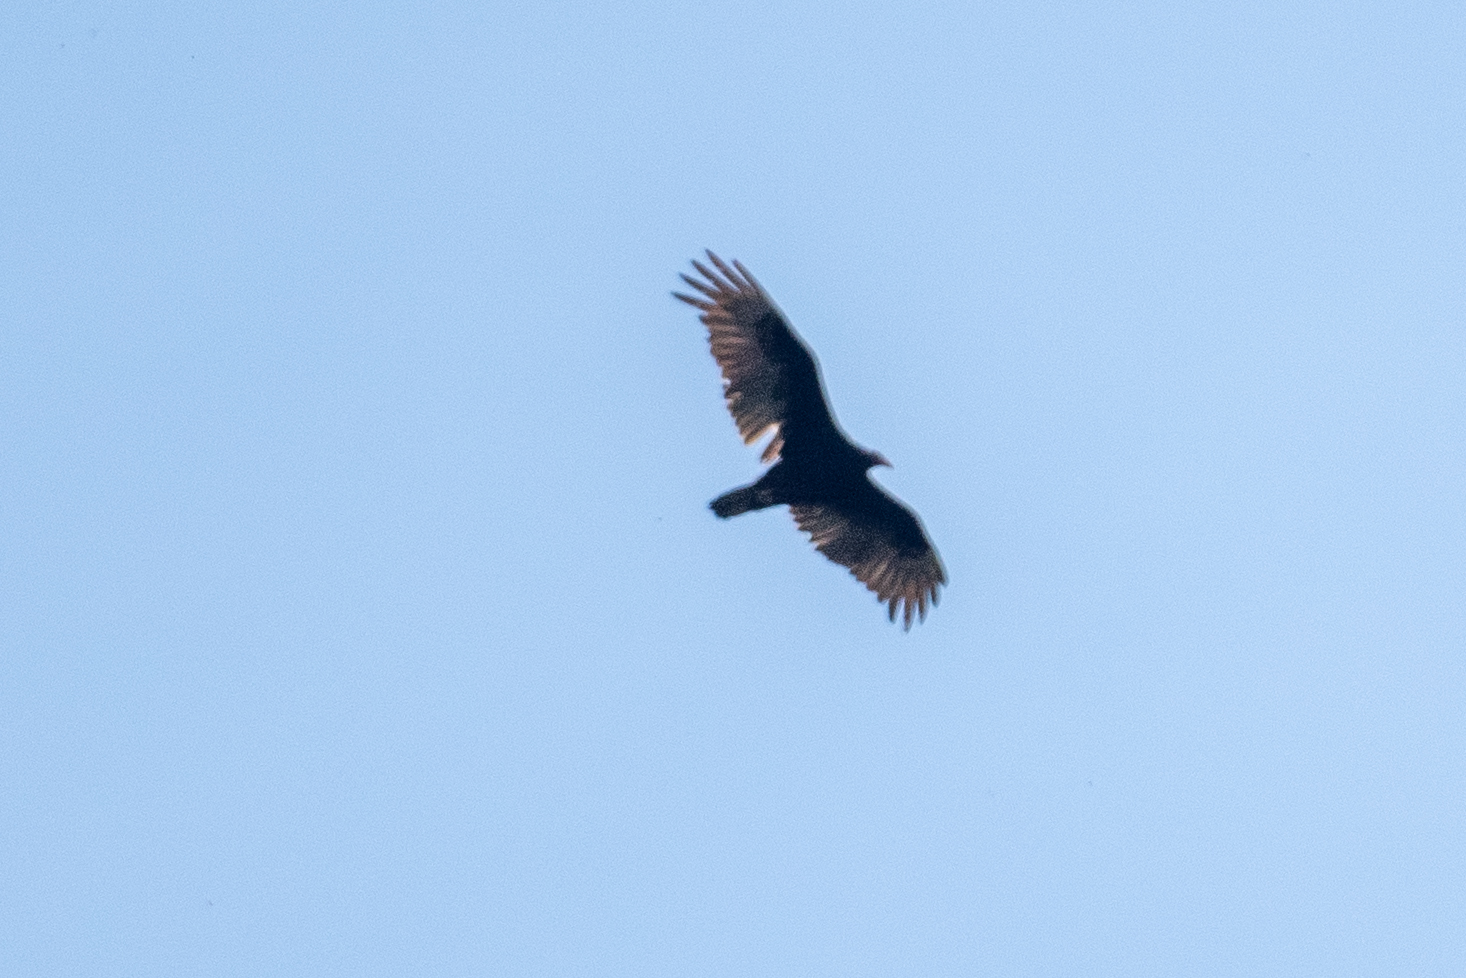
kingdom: Animalia
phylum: Chordata
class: Aves
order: Accipitriformes
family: Cathartidae
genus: Cathartes
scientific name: Cathartes aura
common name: Turkey vulture
